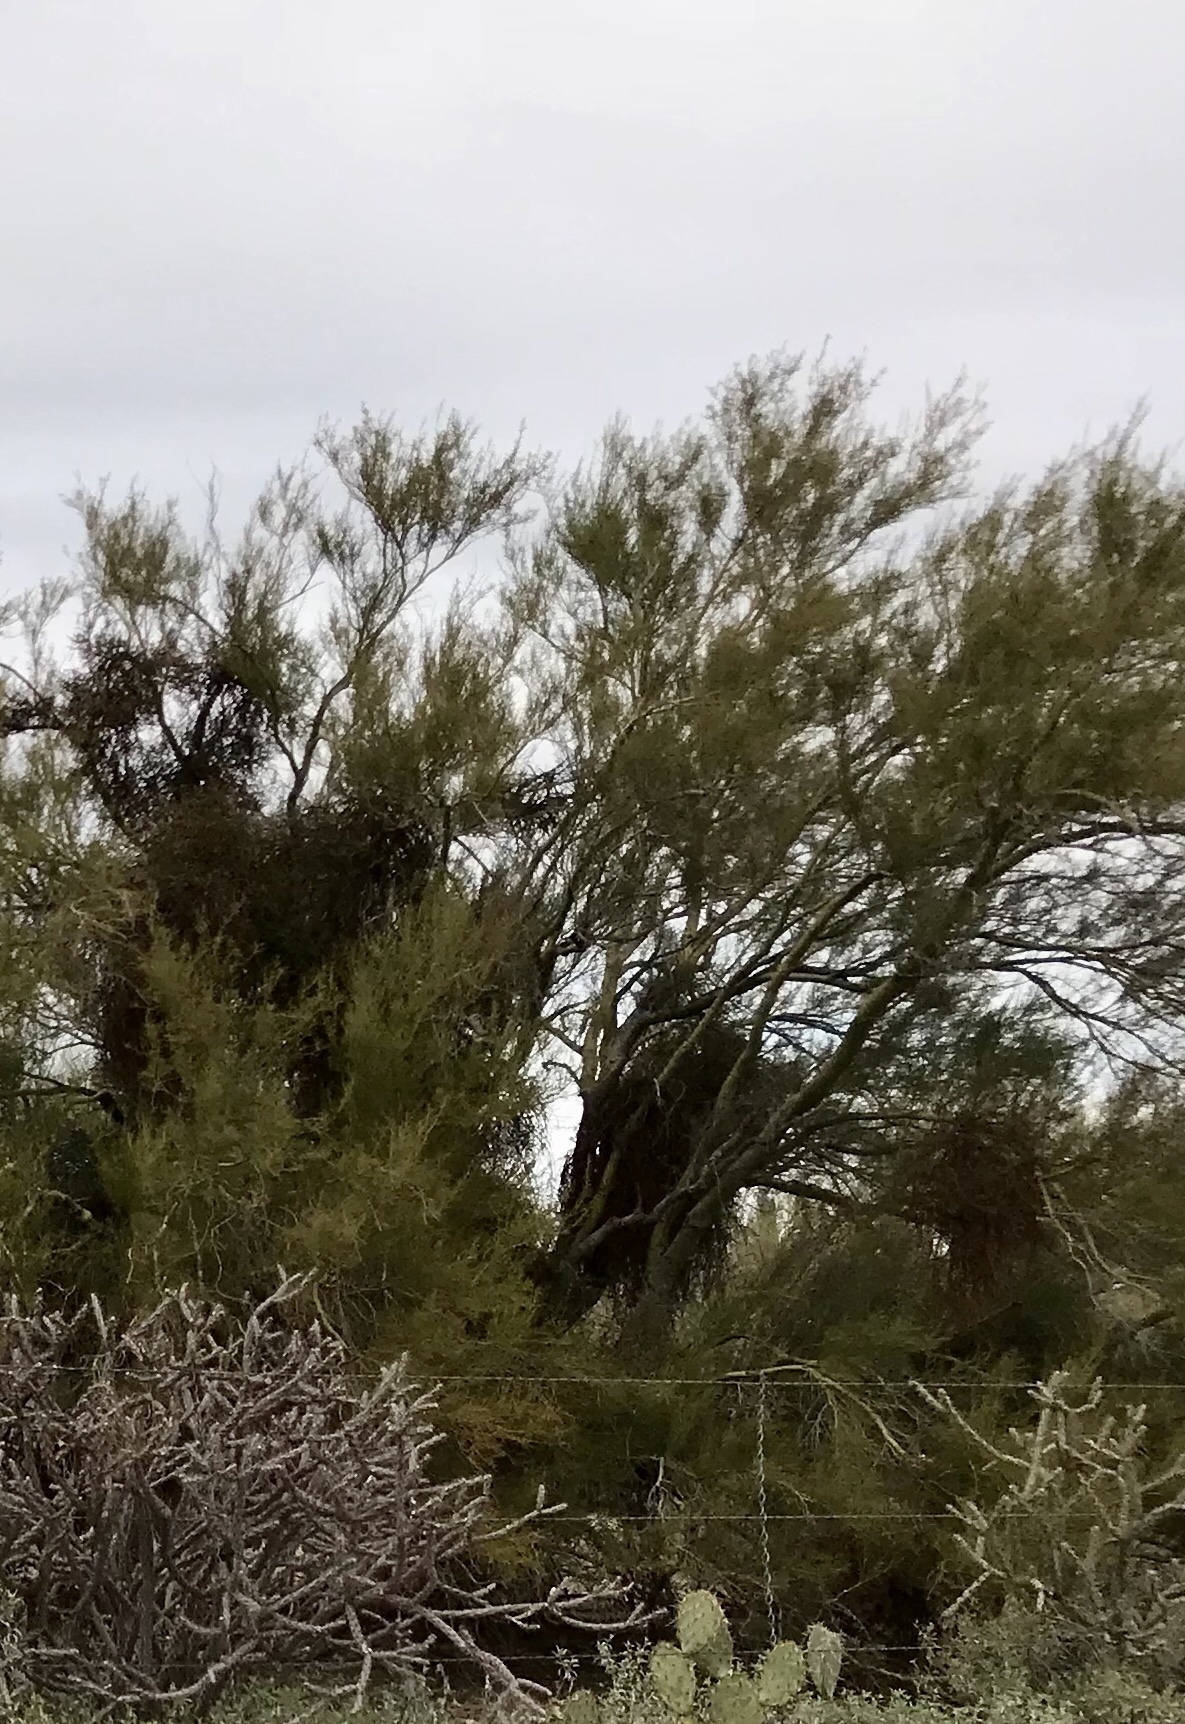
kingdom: Plantae
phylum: Tracheophyta
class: Magnoliopsida
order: Fabales
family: Fabaceae
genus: Parkinsonia
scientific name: Parkinsonia microphylla
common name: Yellow paloverde
